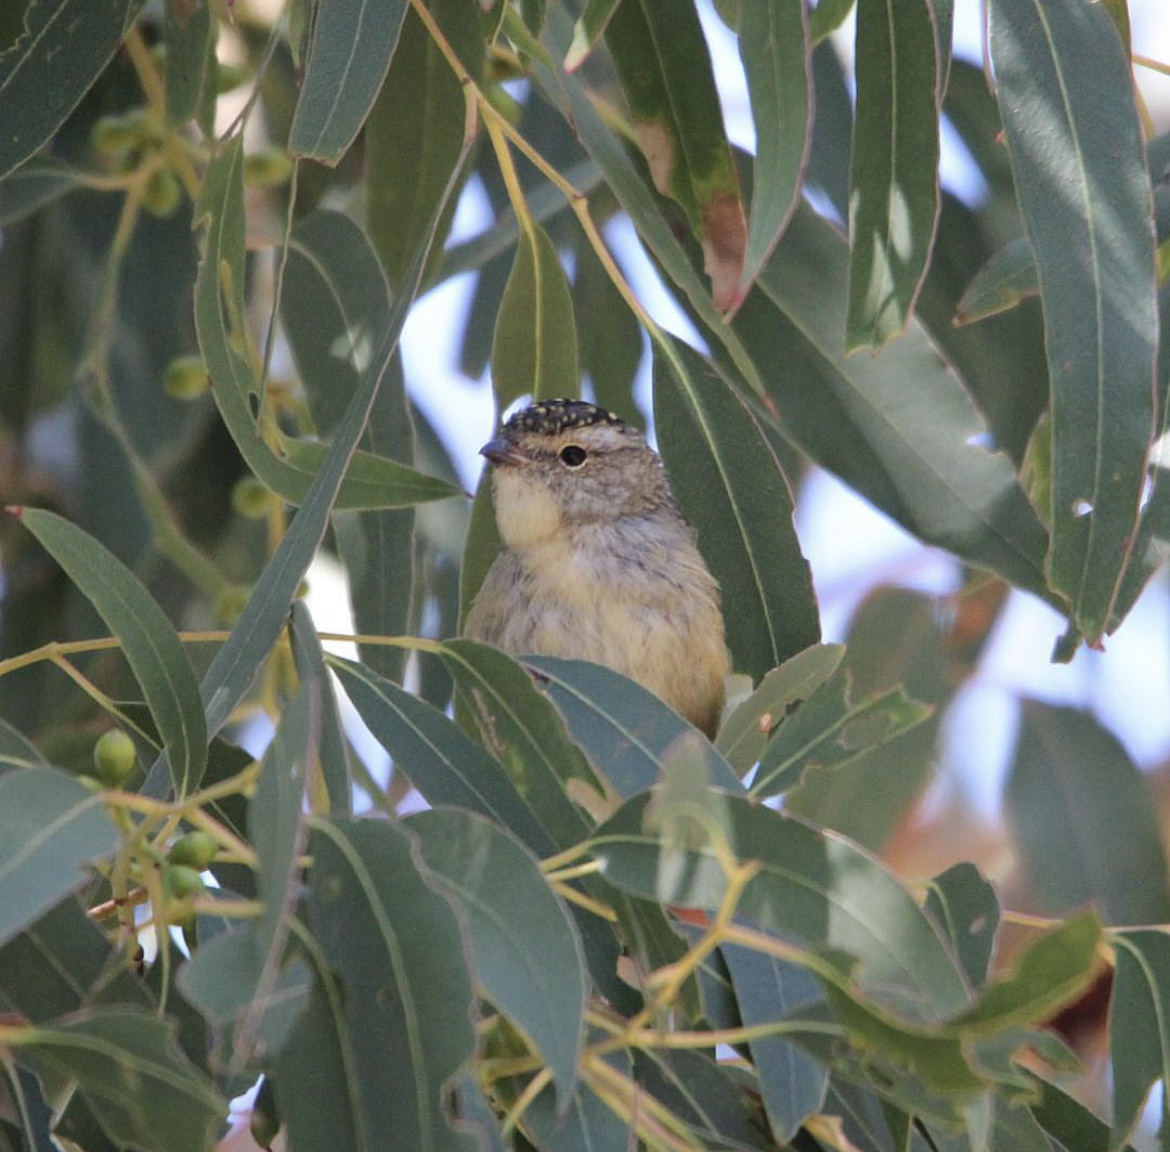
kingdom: Animalia
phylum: Chordata
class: Aves
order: Passeriformes
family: Pardalotidae
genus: Pardalotus
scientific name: Pardalotus punctatus
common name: Spotted pardalote
